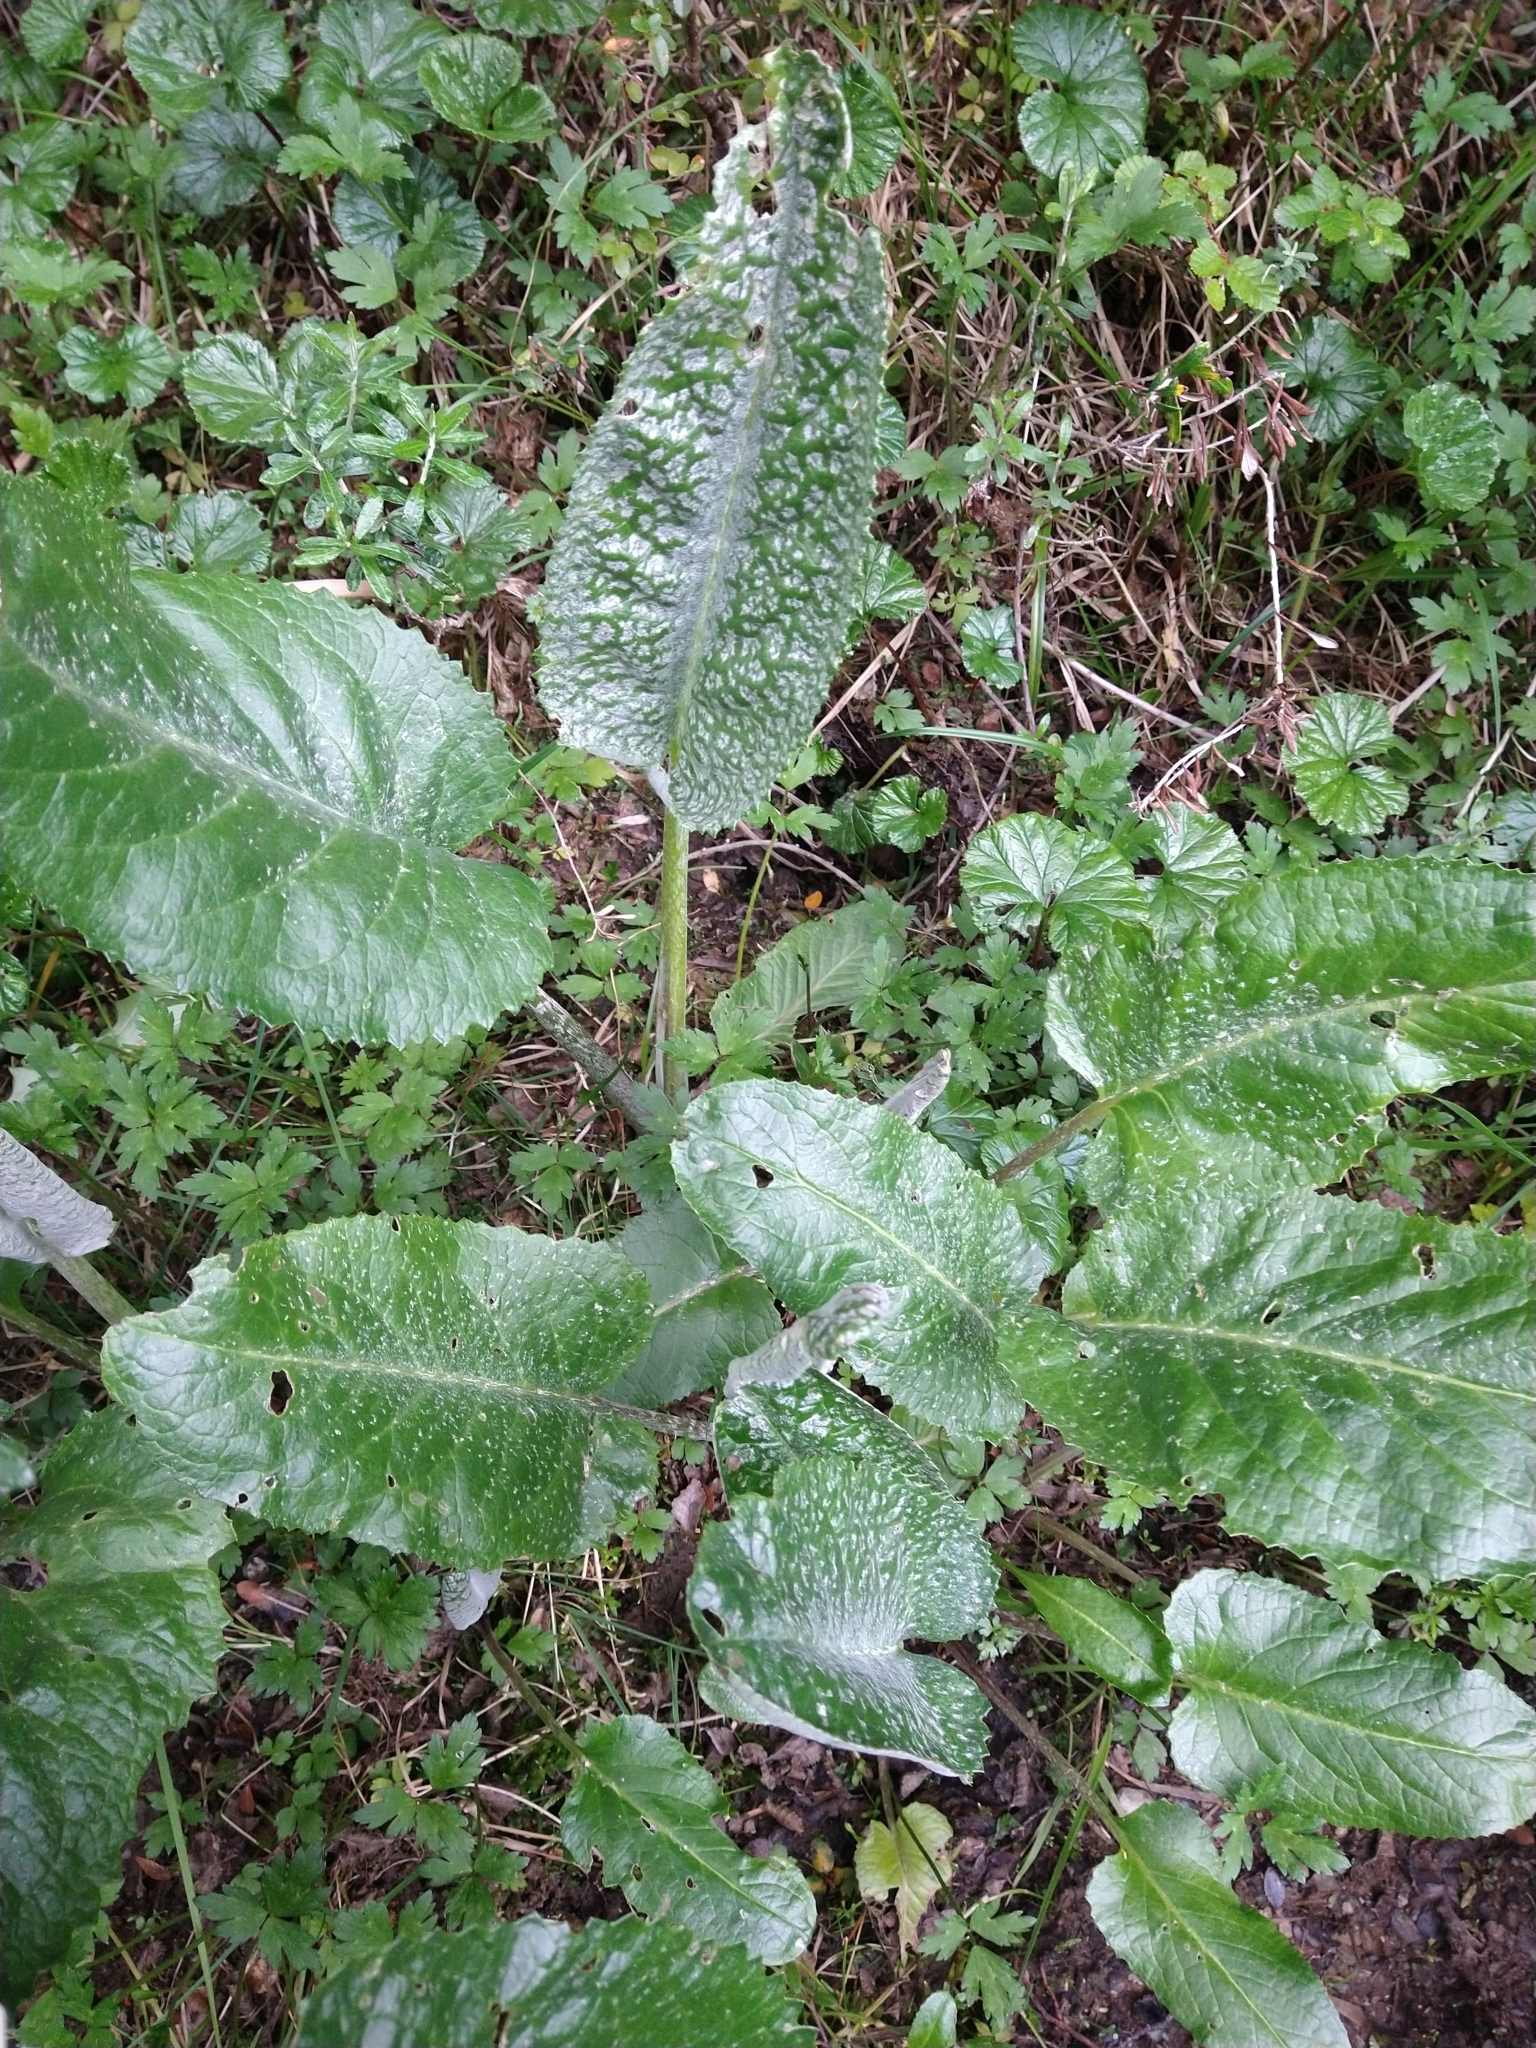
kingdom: Plantae
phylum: Tracheophyta
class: Magnoliopsida
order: Asterales
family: Asteraceae
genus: Senecio
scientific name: Senecio smithii
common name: Magellan ragwort
